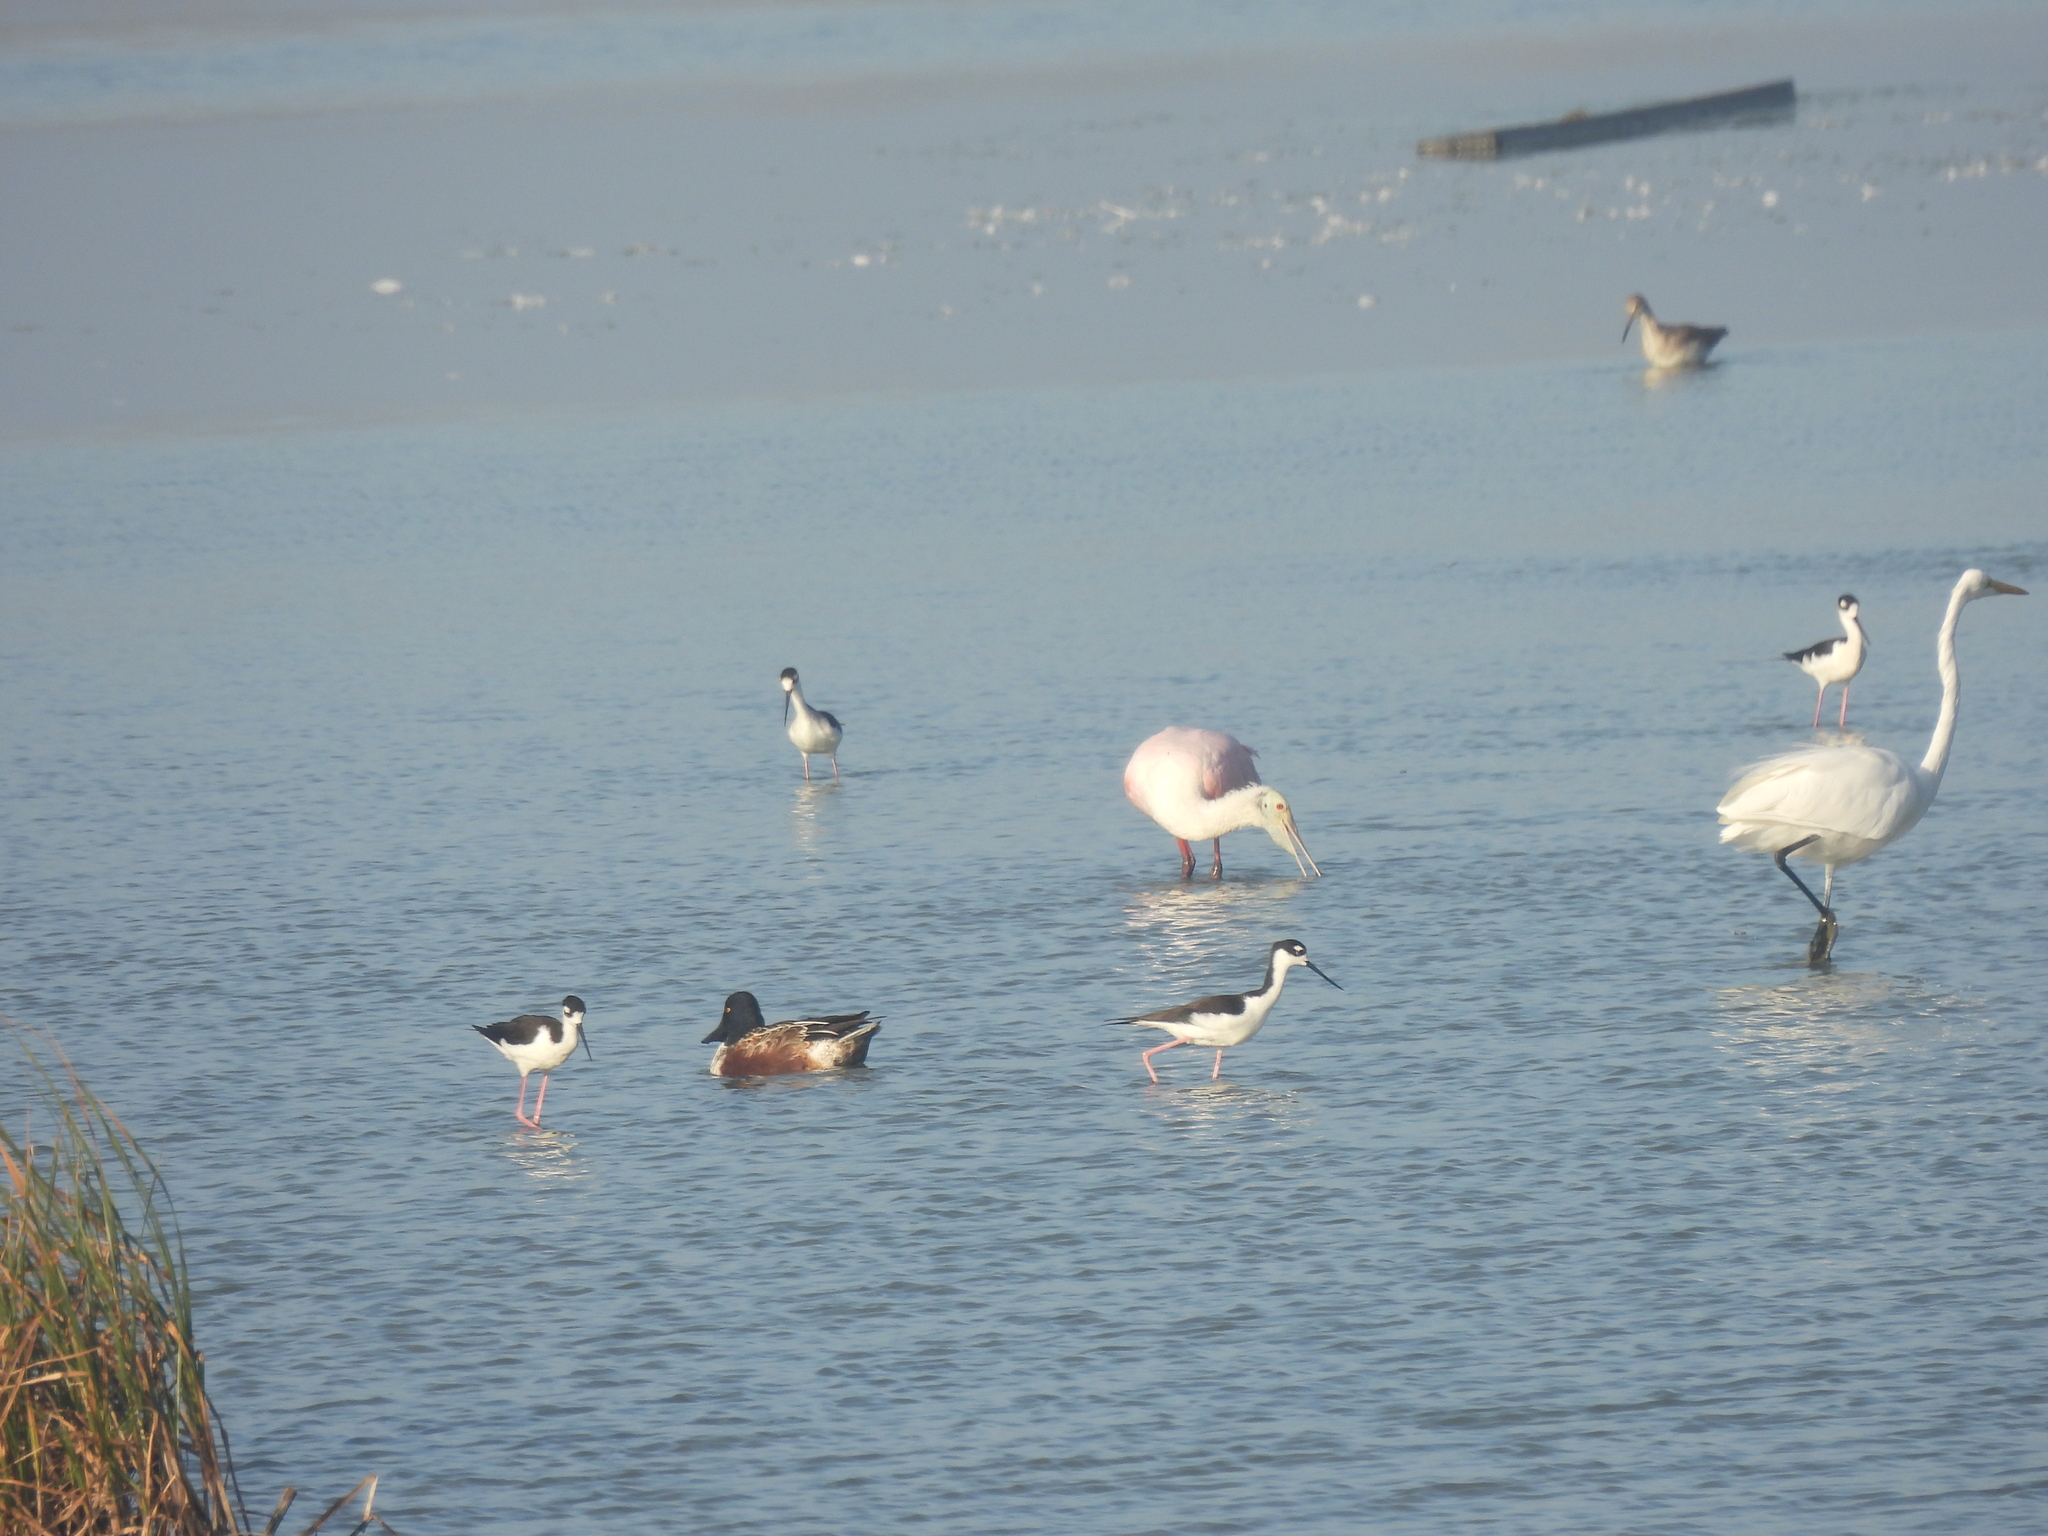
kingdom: Animalia
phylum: Chordata
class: Aves
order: Anseriformes
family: Anatidae
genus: Spatula
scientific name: Spatula clypeata
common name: Northern shoveler
